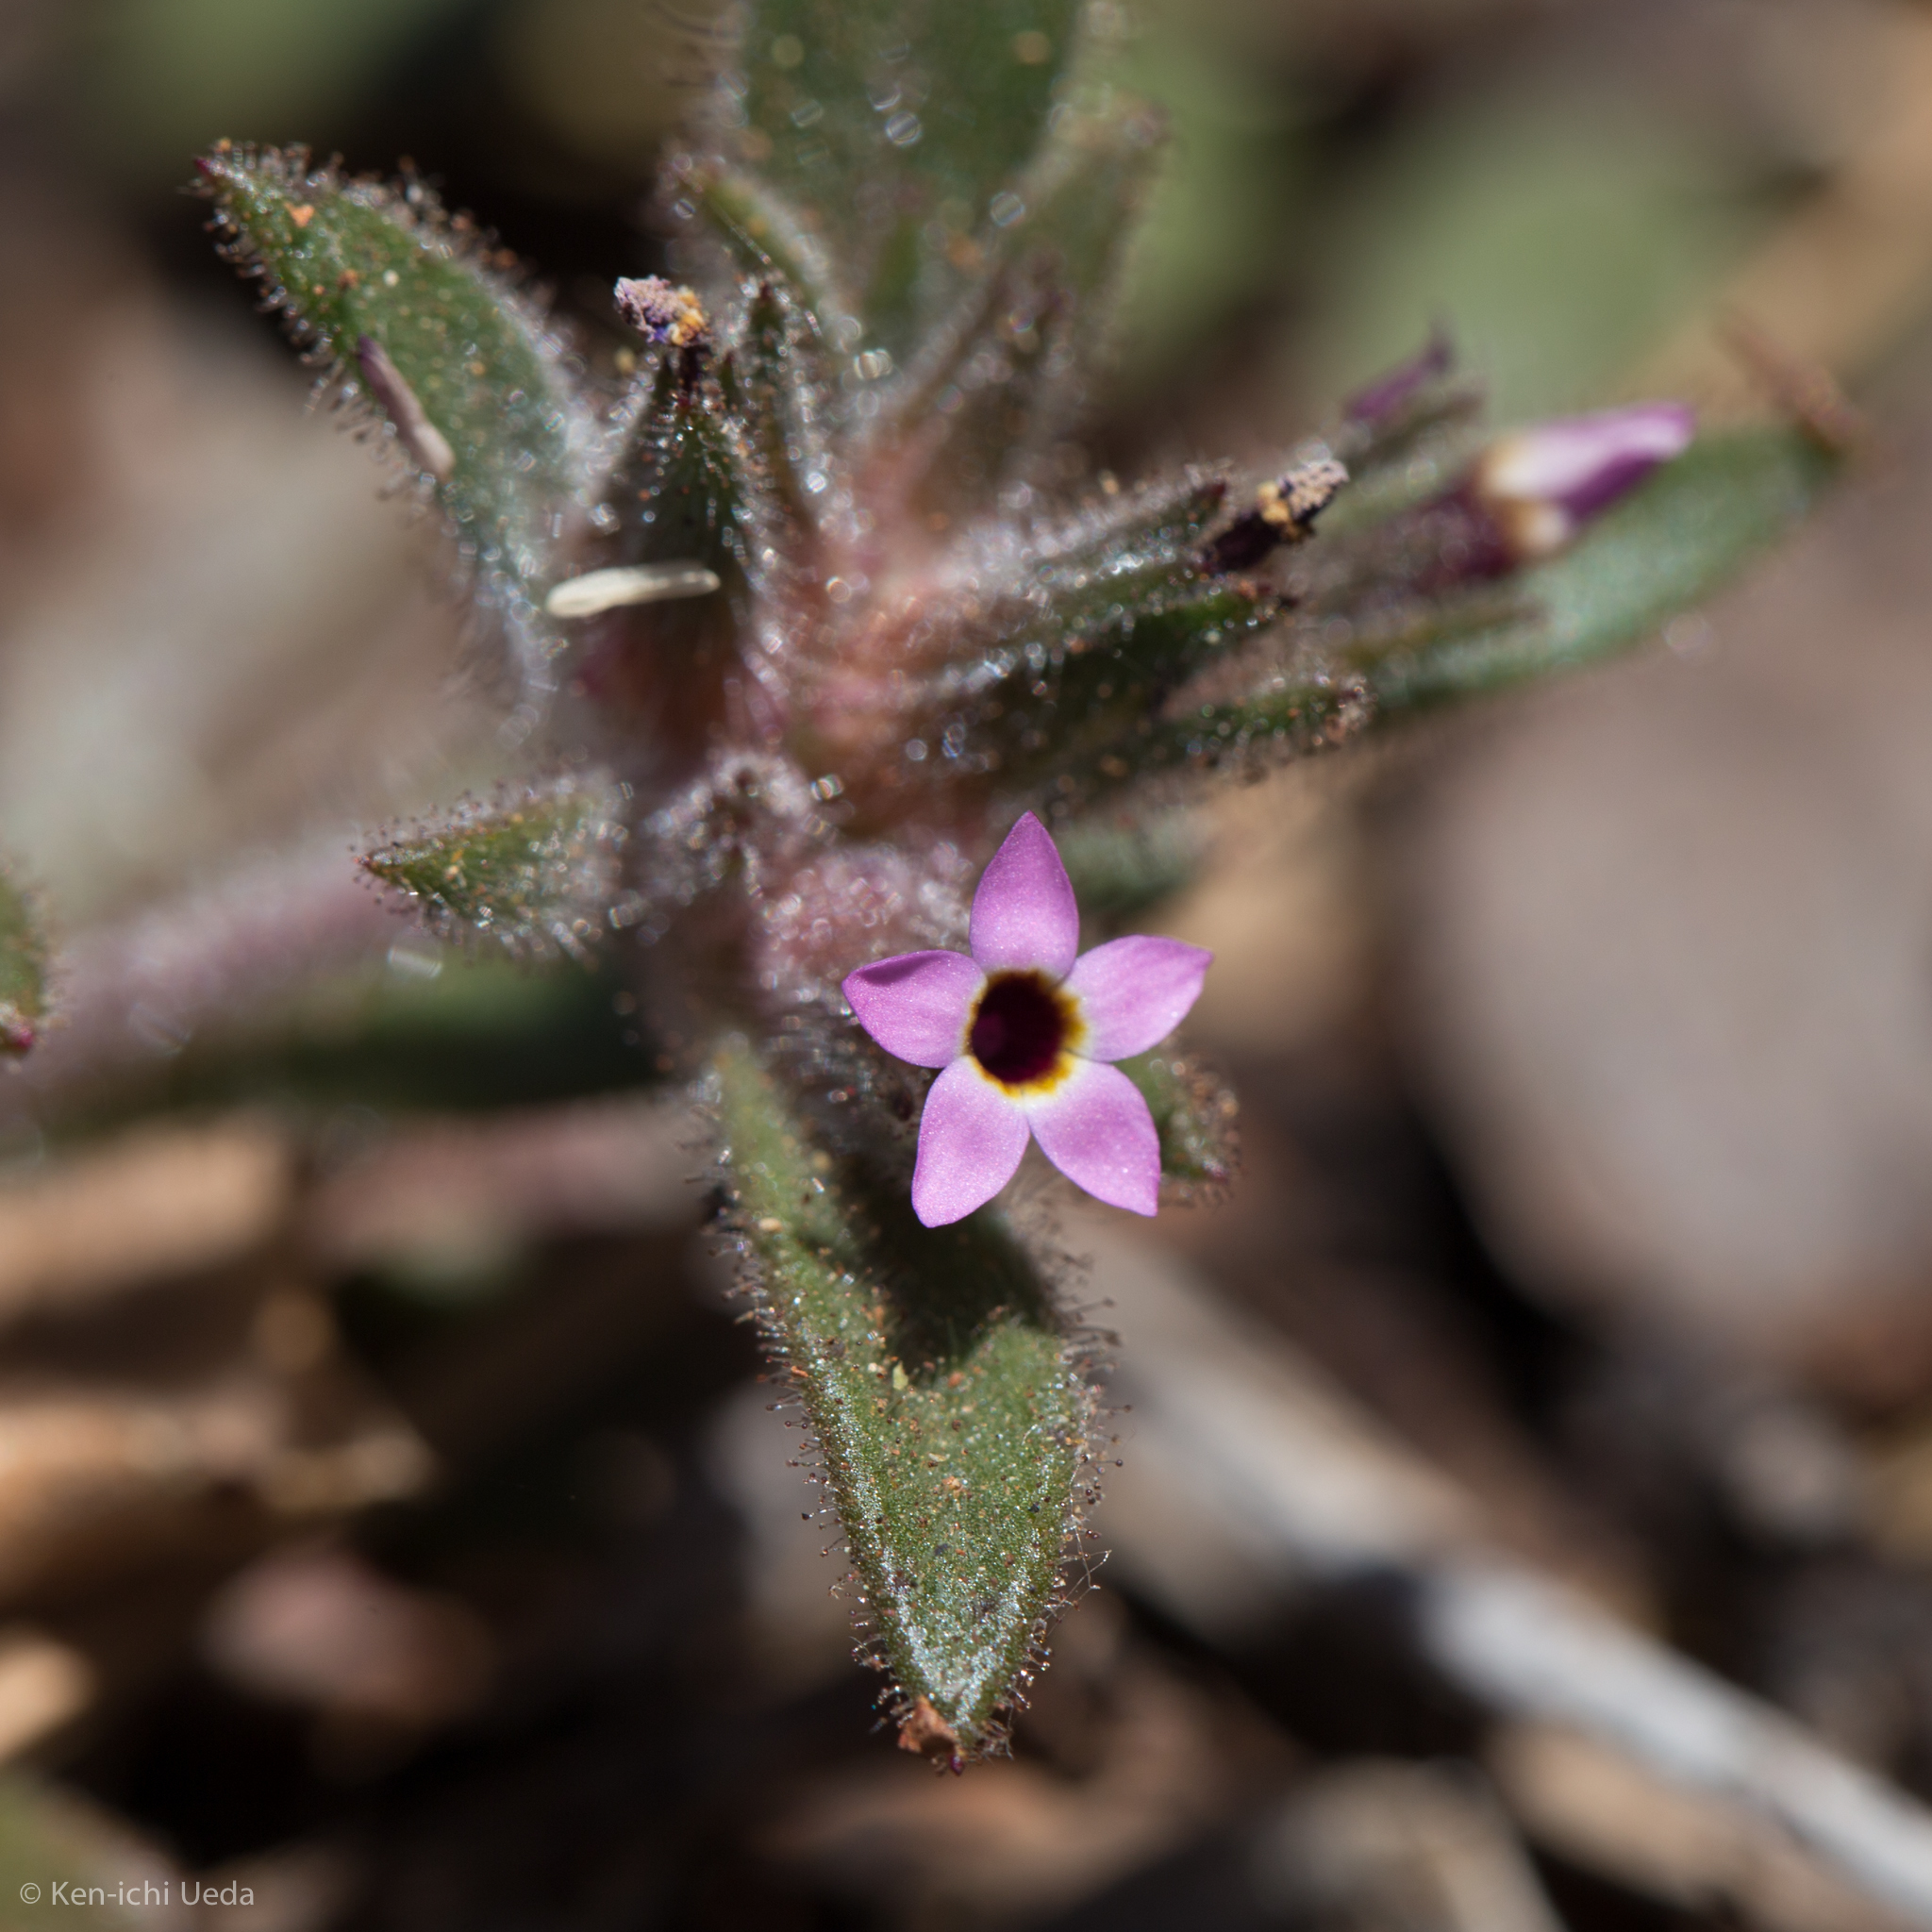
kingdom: Plantae
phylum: Tracheophyta
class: Magnoliopsida
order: Ericales
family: Polemoniaceae
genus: Collomia
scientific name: Collomia diversifolia
